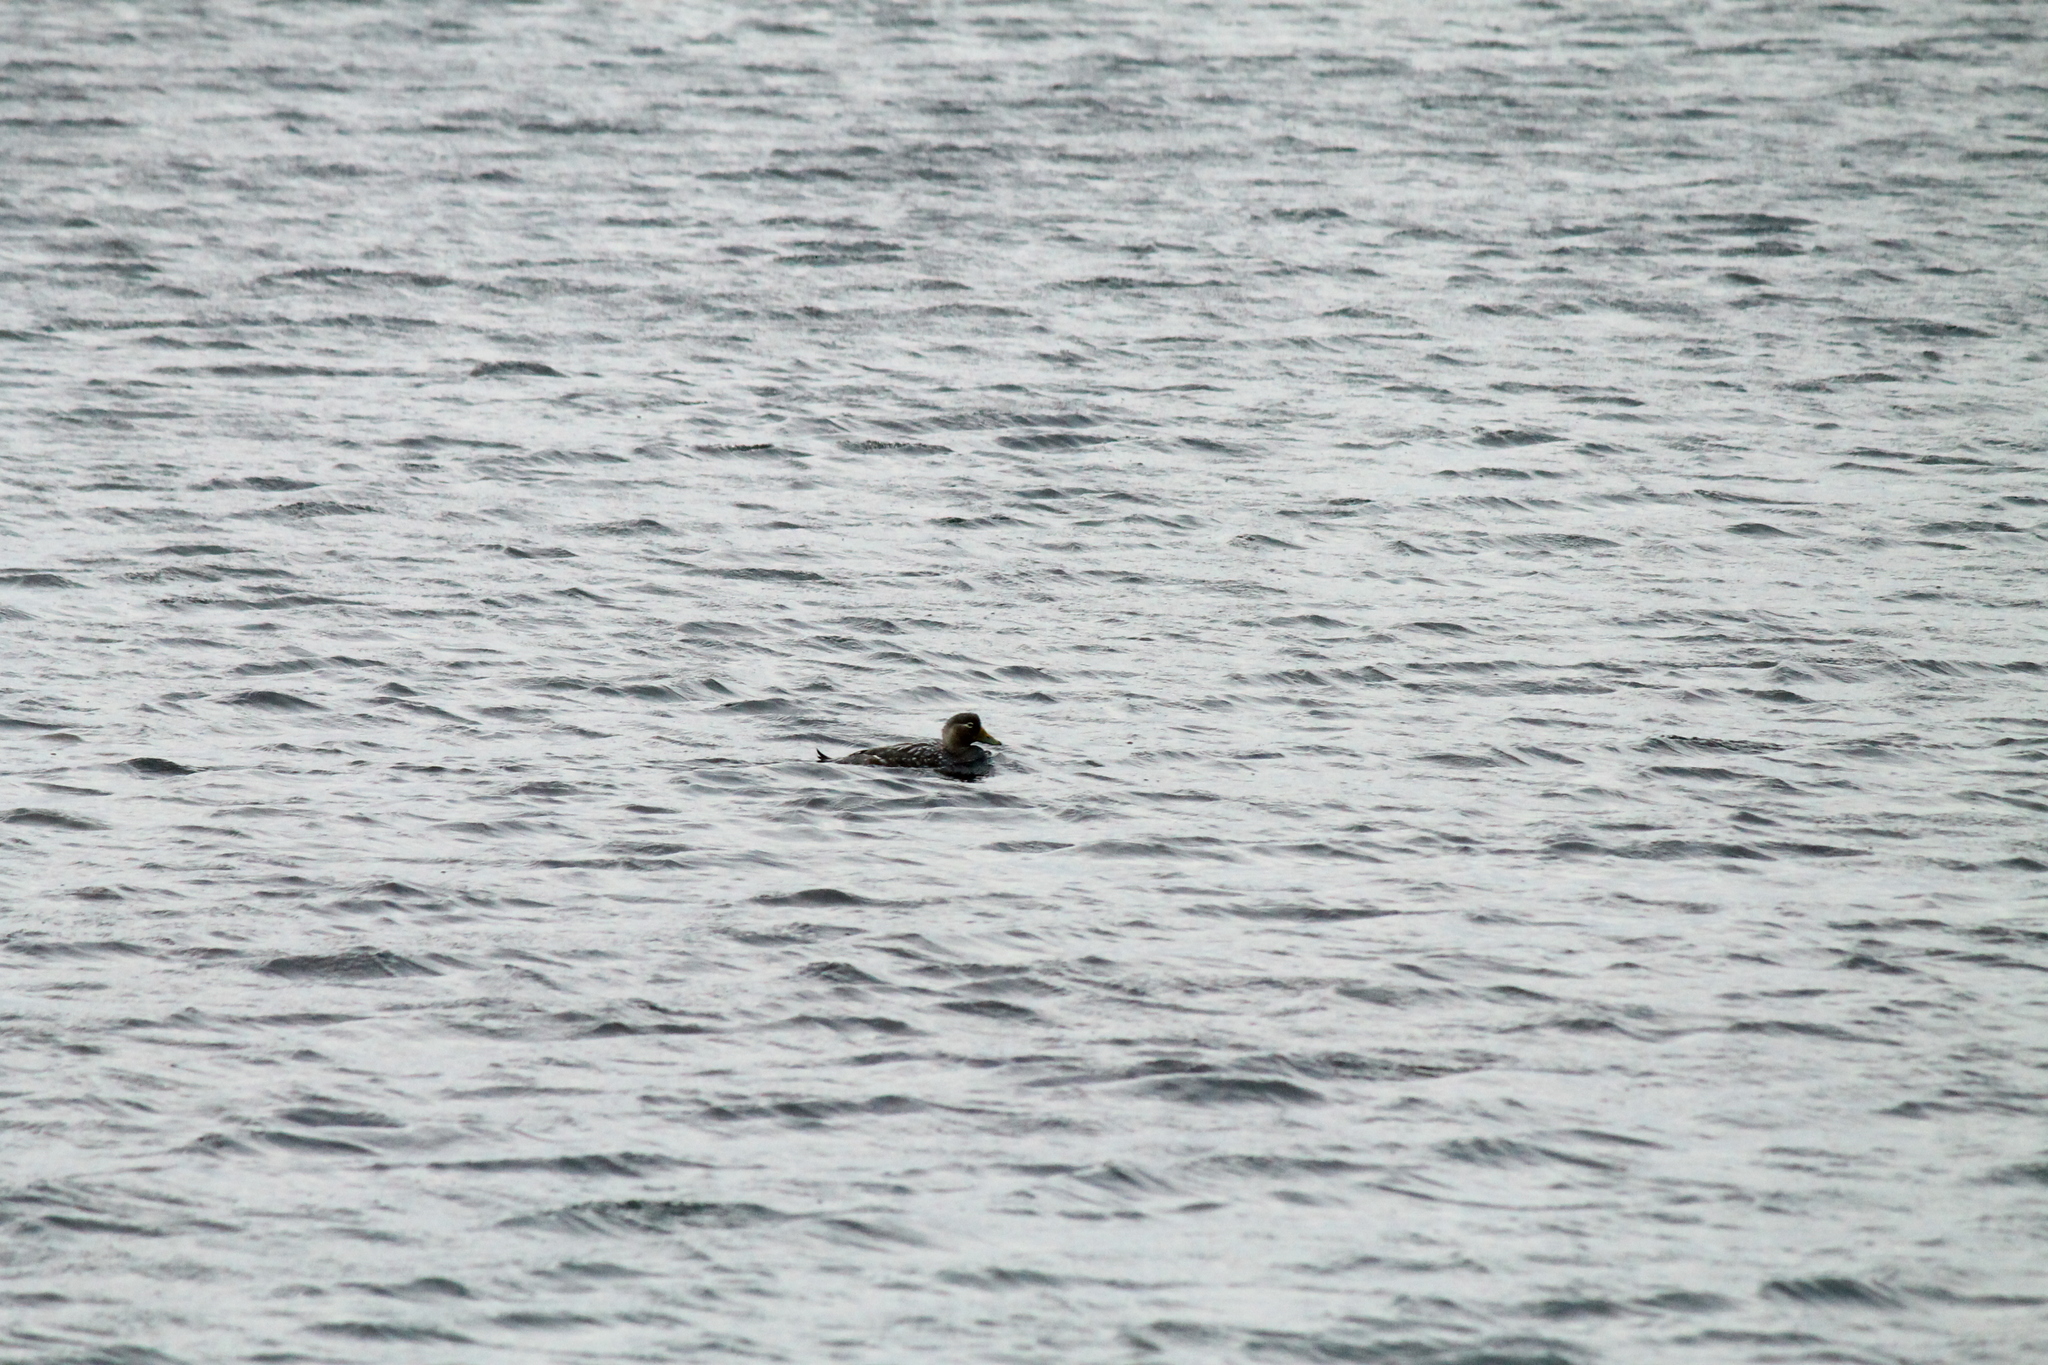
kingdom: Animalia
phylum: Chordata
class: Aves
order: Anseriformes
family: Anatidae
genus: Tachyeres
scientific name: Tachyeres patachonicus
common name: Flying steamer duck
